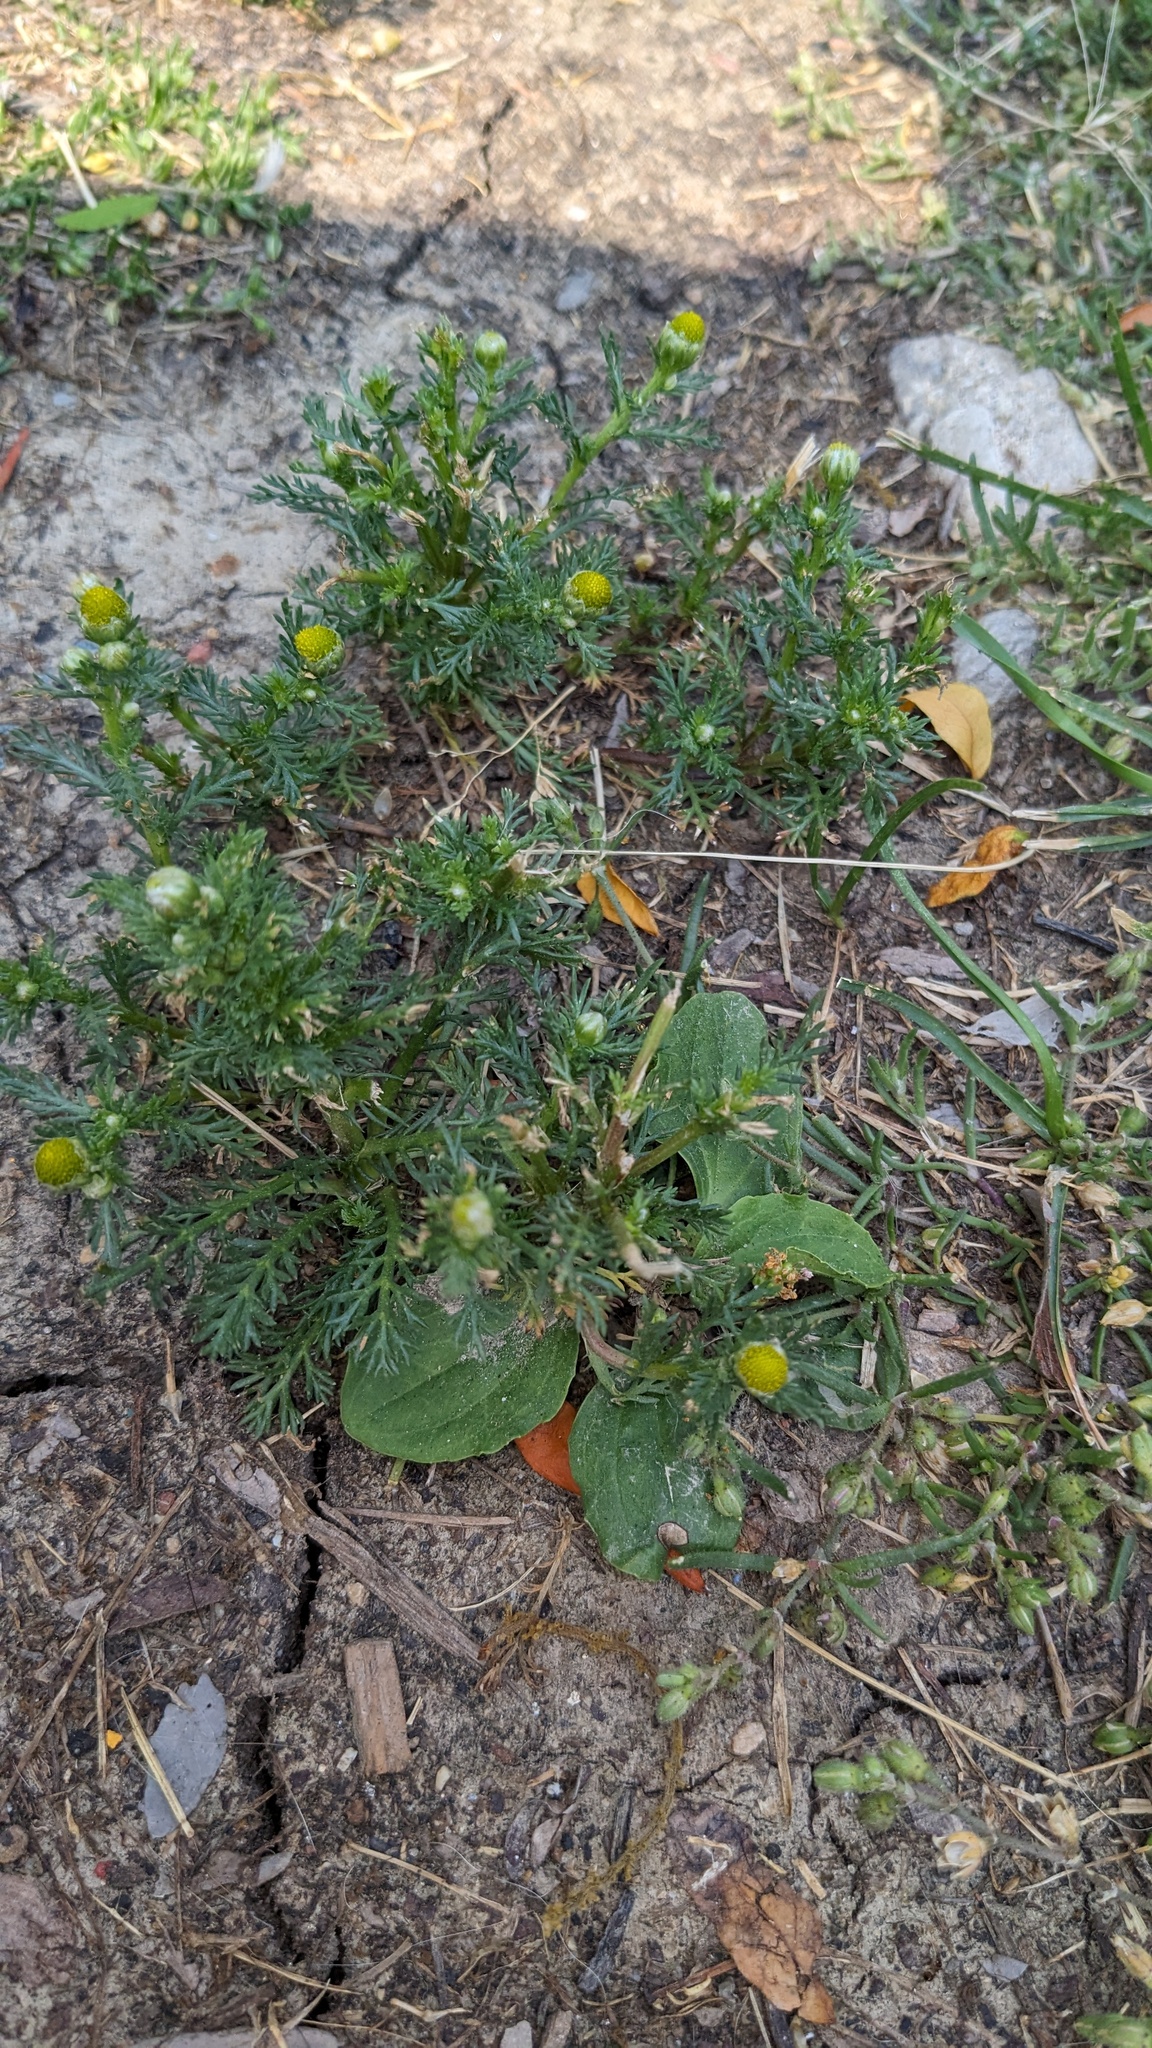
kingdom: Plantae
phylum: Tracheophyta
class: Magnoliopsida
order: Asterales
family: Asteraceae
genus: Matricaria
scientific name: Matricaria discoidea
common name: Disc mayweed
